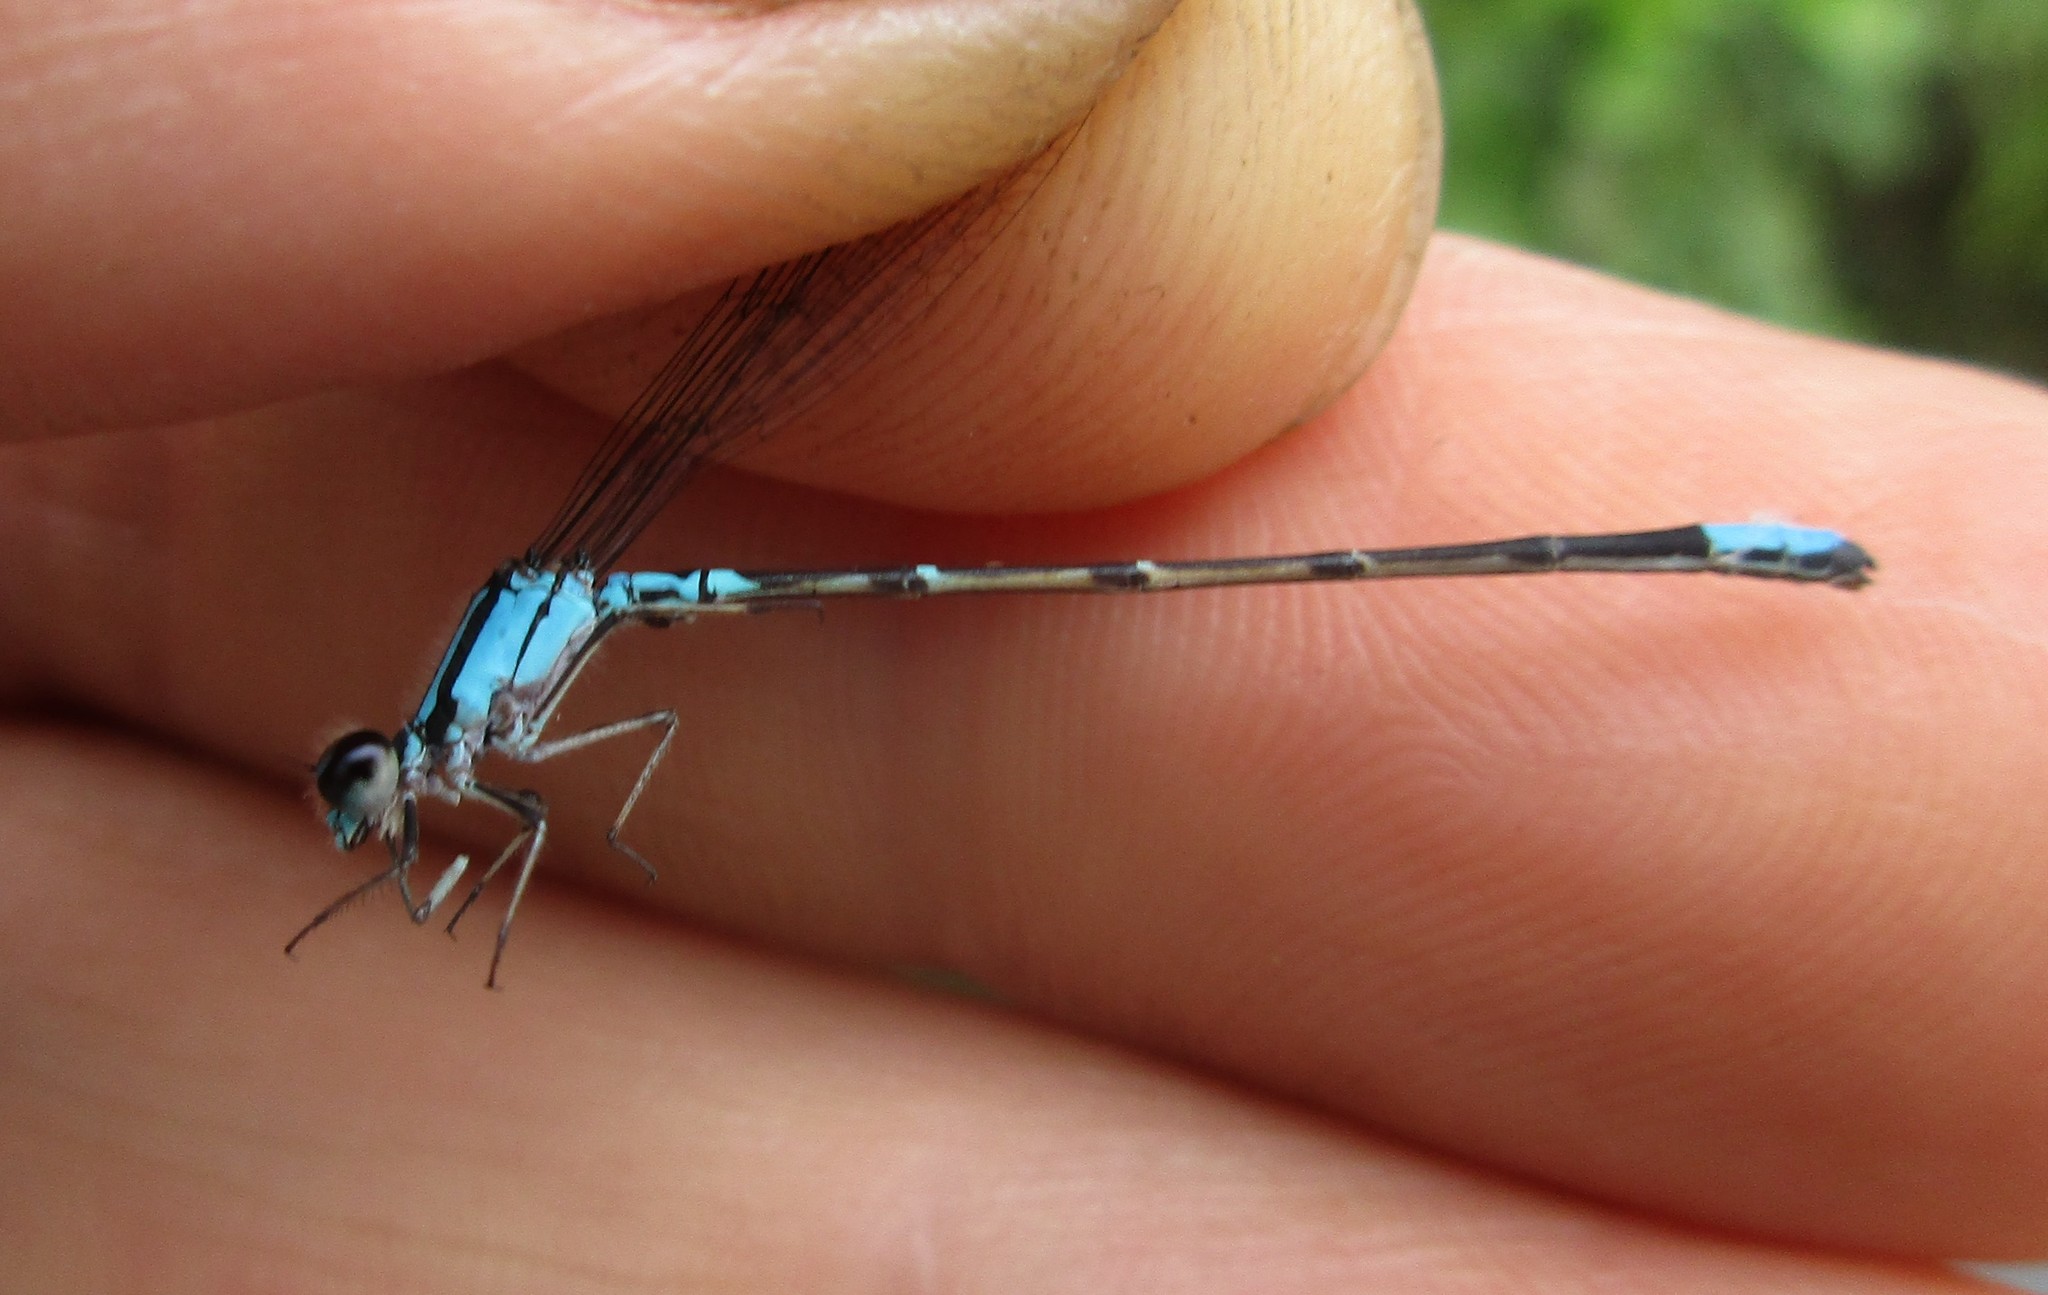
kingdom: Animalia
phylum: Arthropoda
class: Insecta
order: Odonata
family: Coenagrionidae
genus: Enallagma
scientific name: Enallagma geminatum
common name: Skimming bluet
